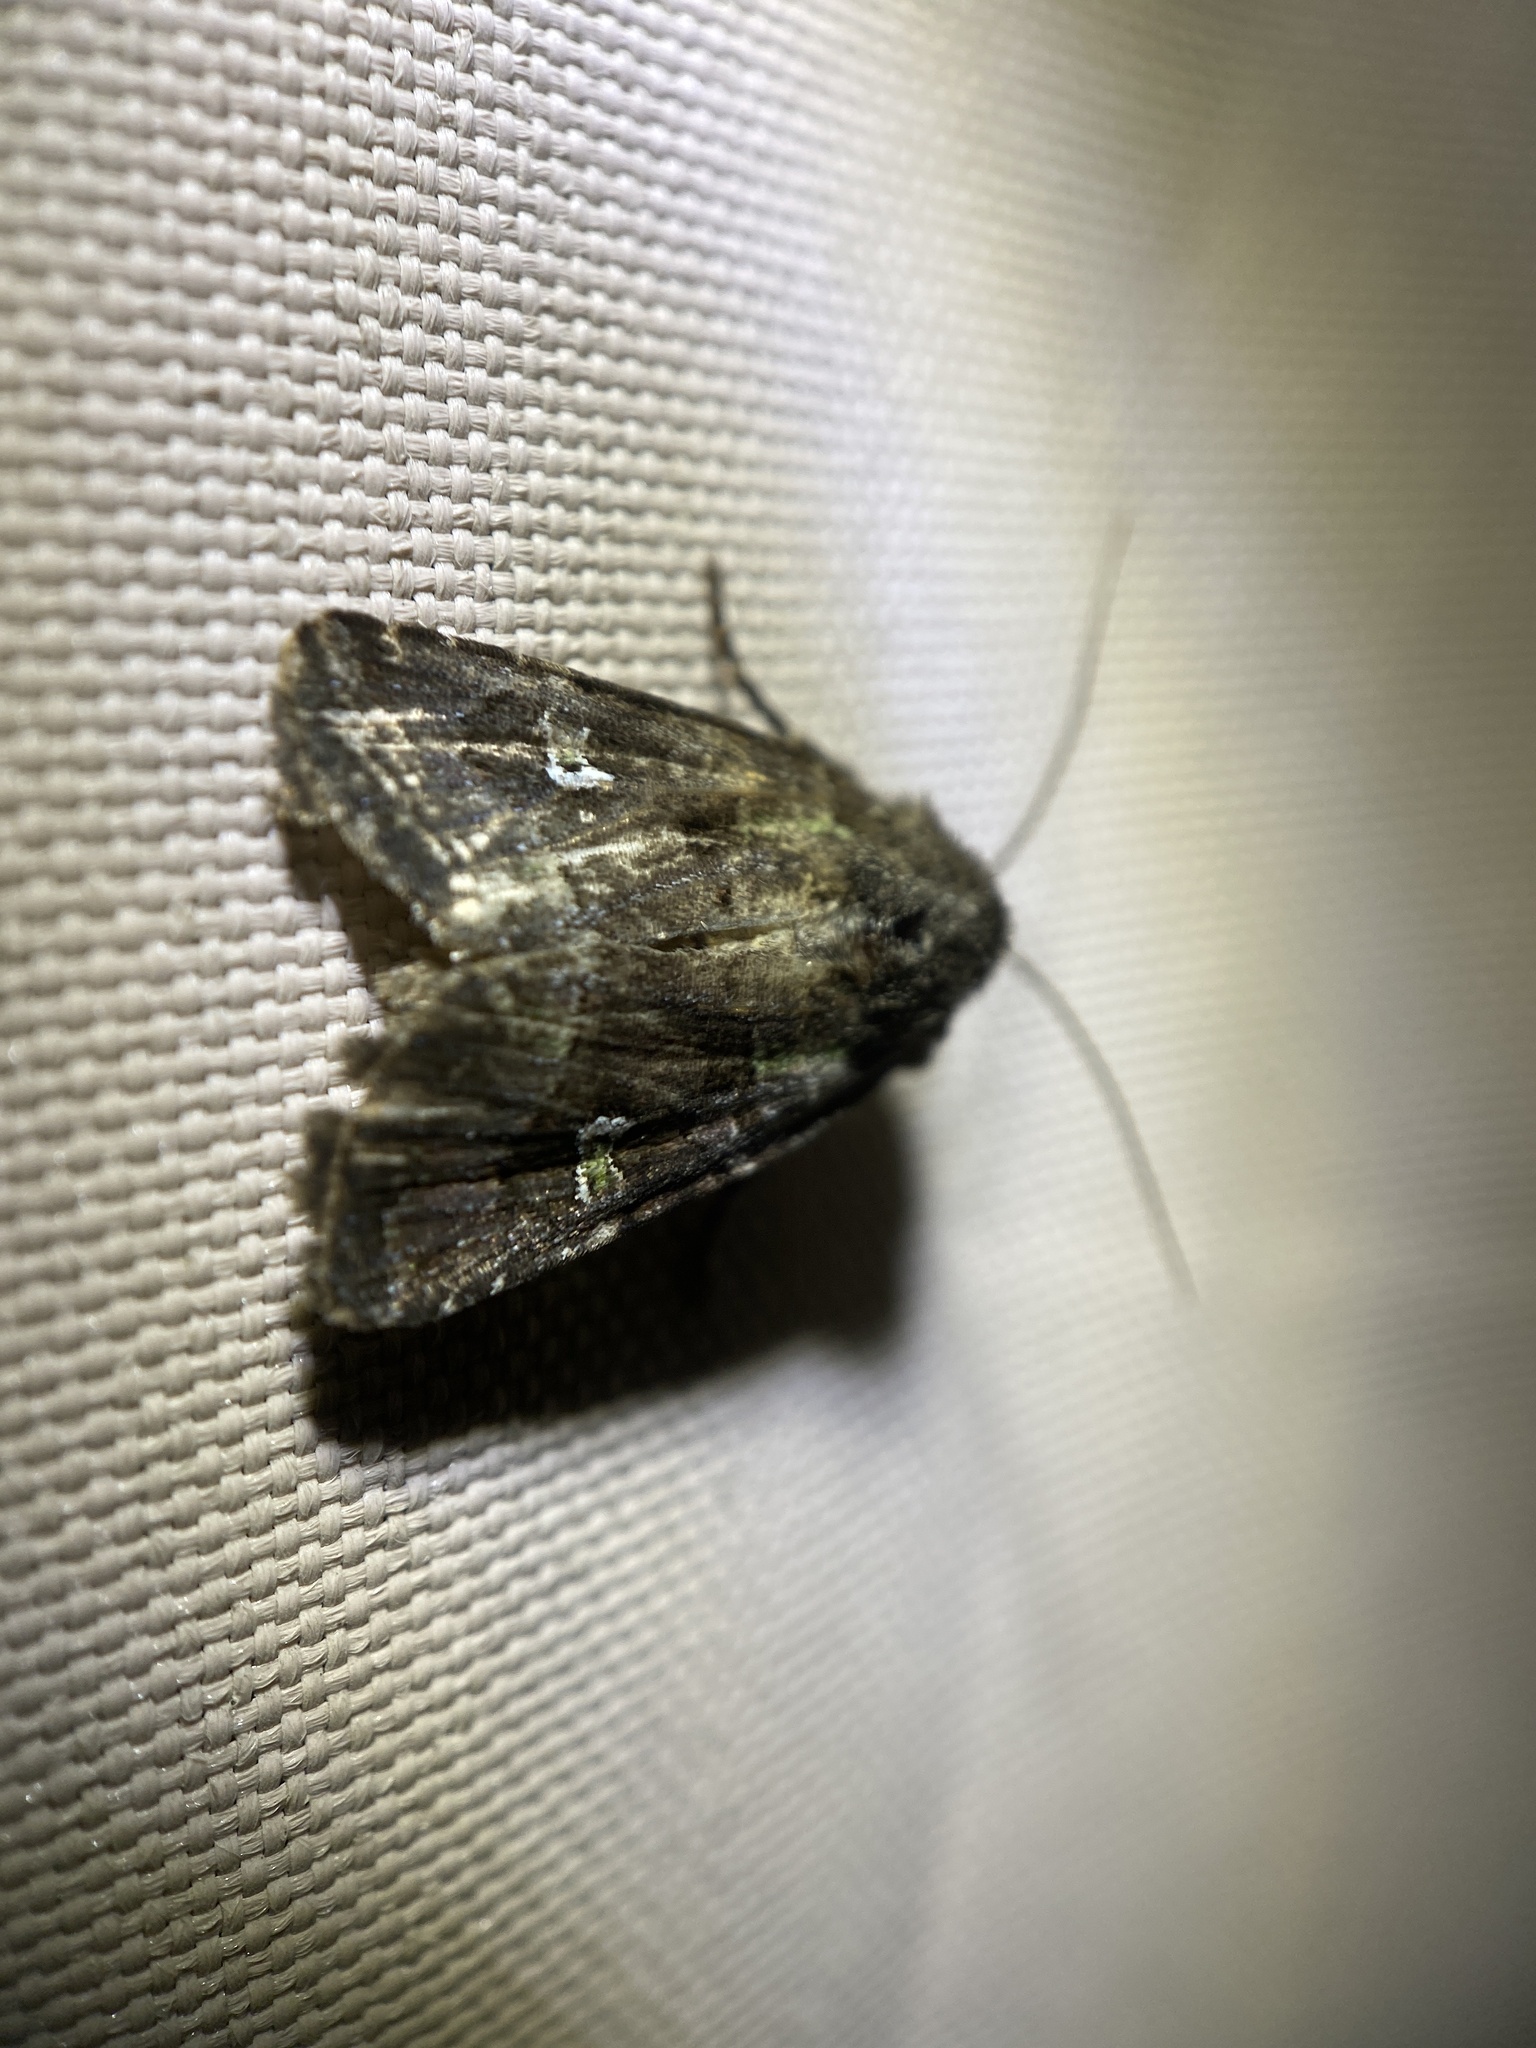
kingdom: Animalia
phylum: Arthropoda
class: Insecta
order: Lepidoptera
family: Noctuidae
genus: Lacinipolia
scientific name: Lacinipolia renigera
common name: Kidney-spotted minor
